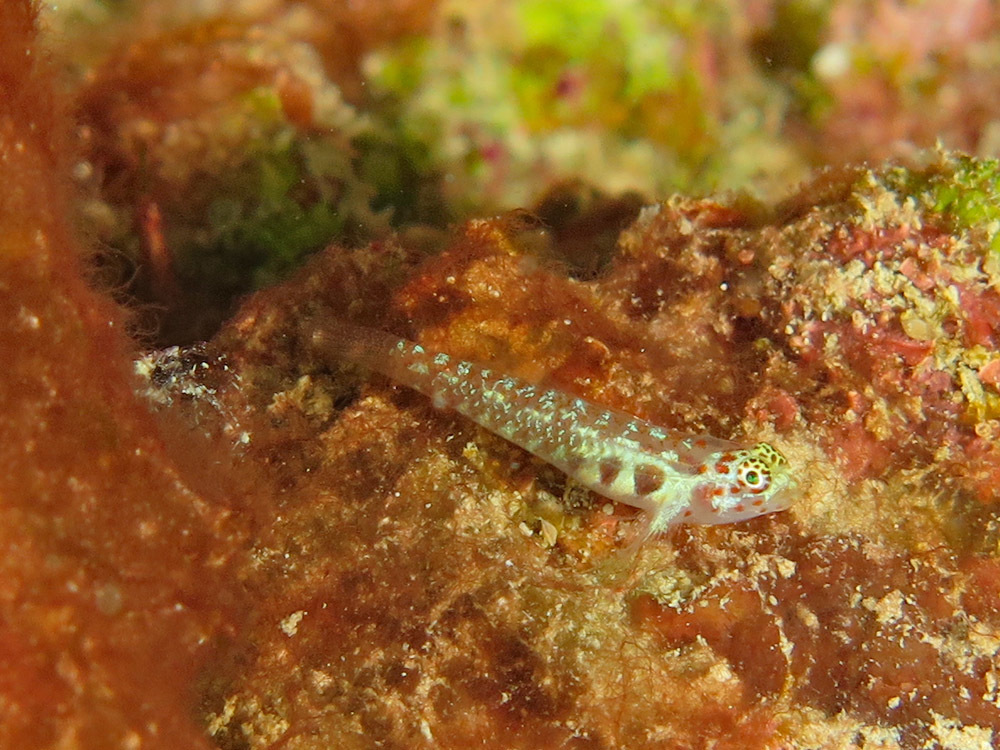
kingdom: Animalia
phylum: Chordata
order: Perciformes
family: Gobiidae
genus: Eviota
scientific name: Eviota melasma
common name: Melasma pygmy goby
